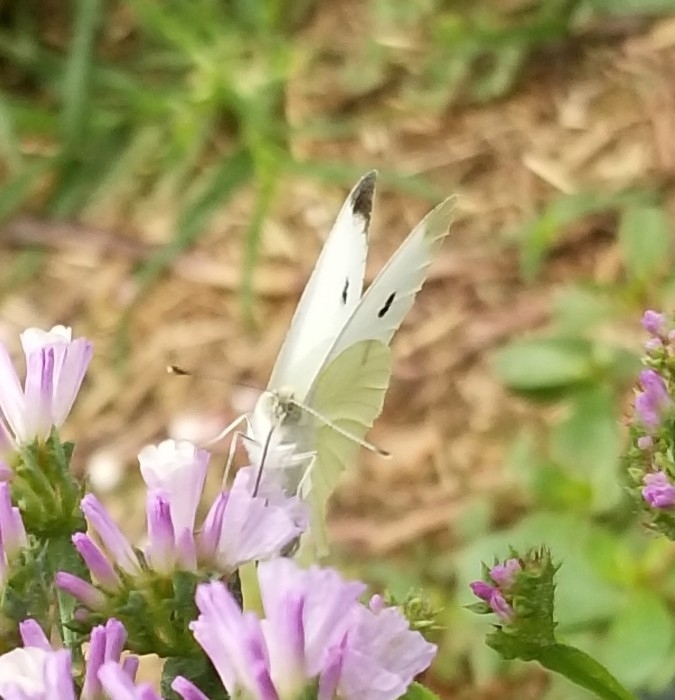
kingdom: Animalia
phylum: Arthropoda
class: Insecta
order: Lepidoptera
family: Pieridae
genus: Pieris
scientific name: Pieris rapae
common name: Small white
